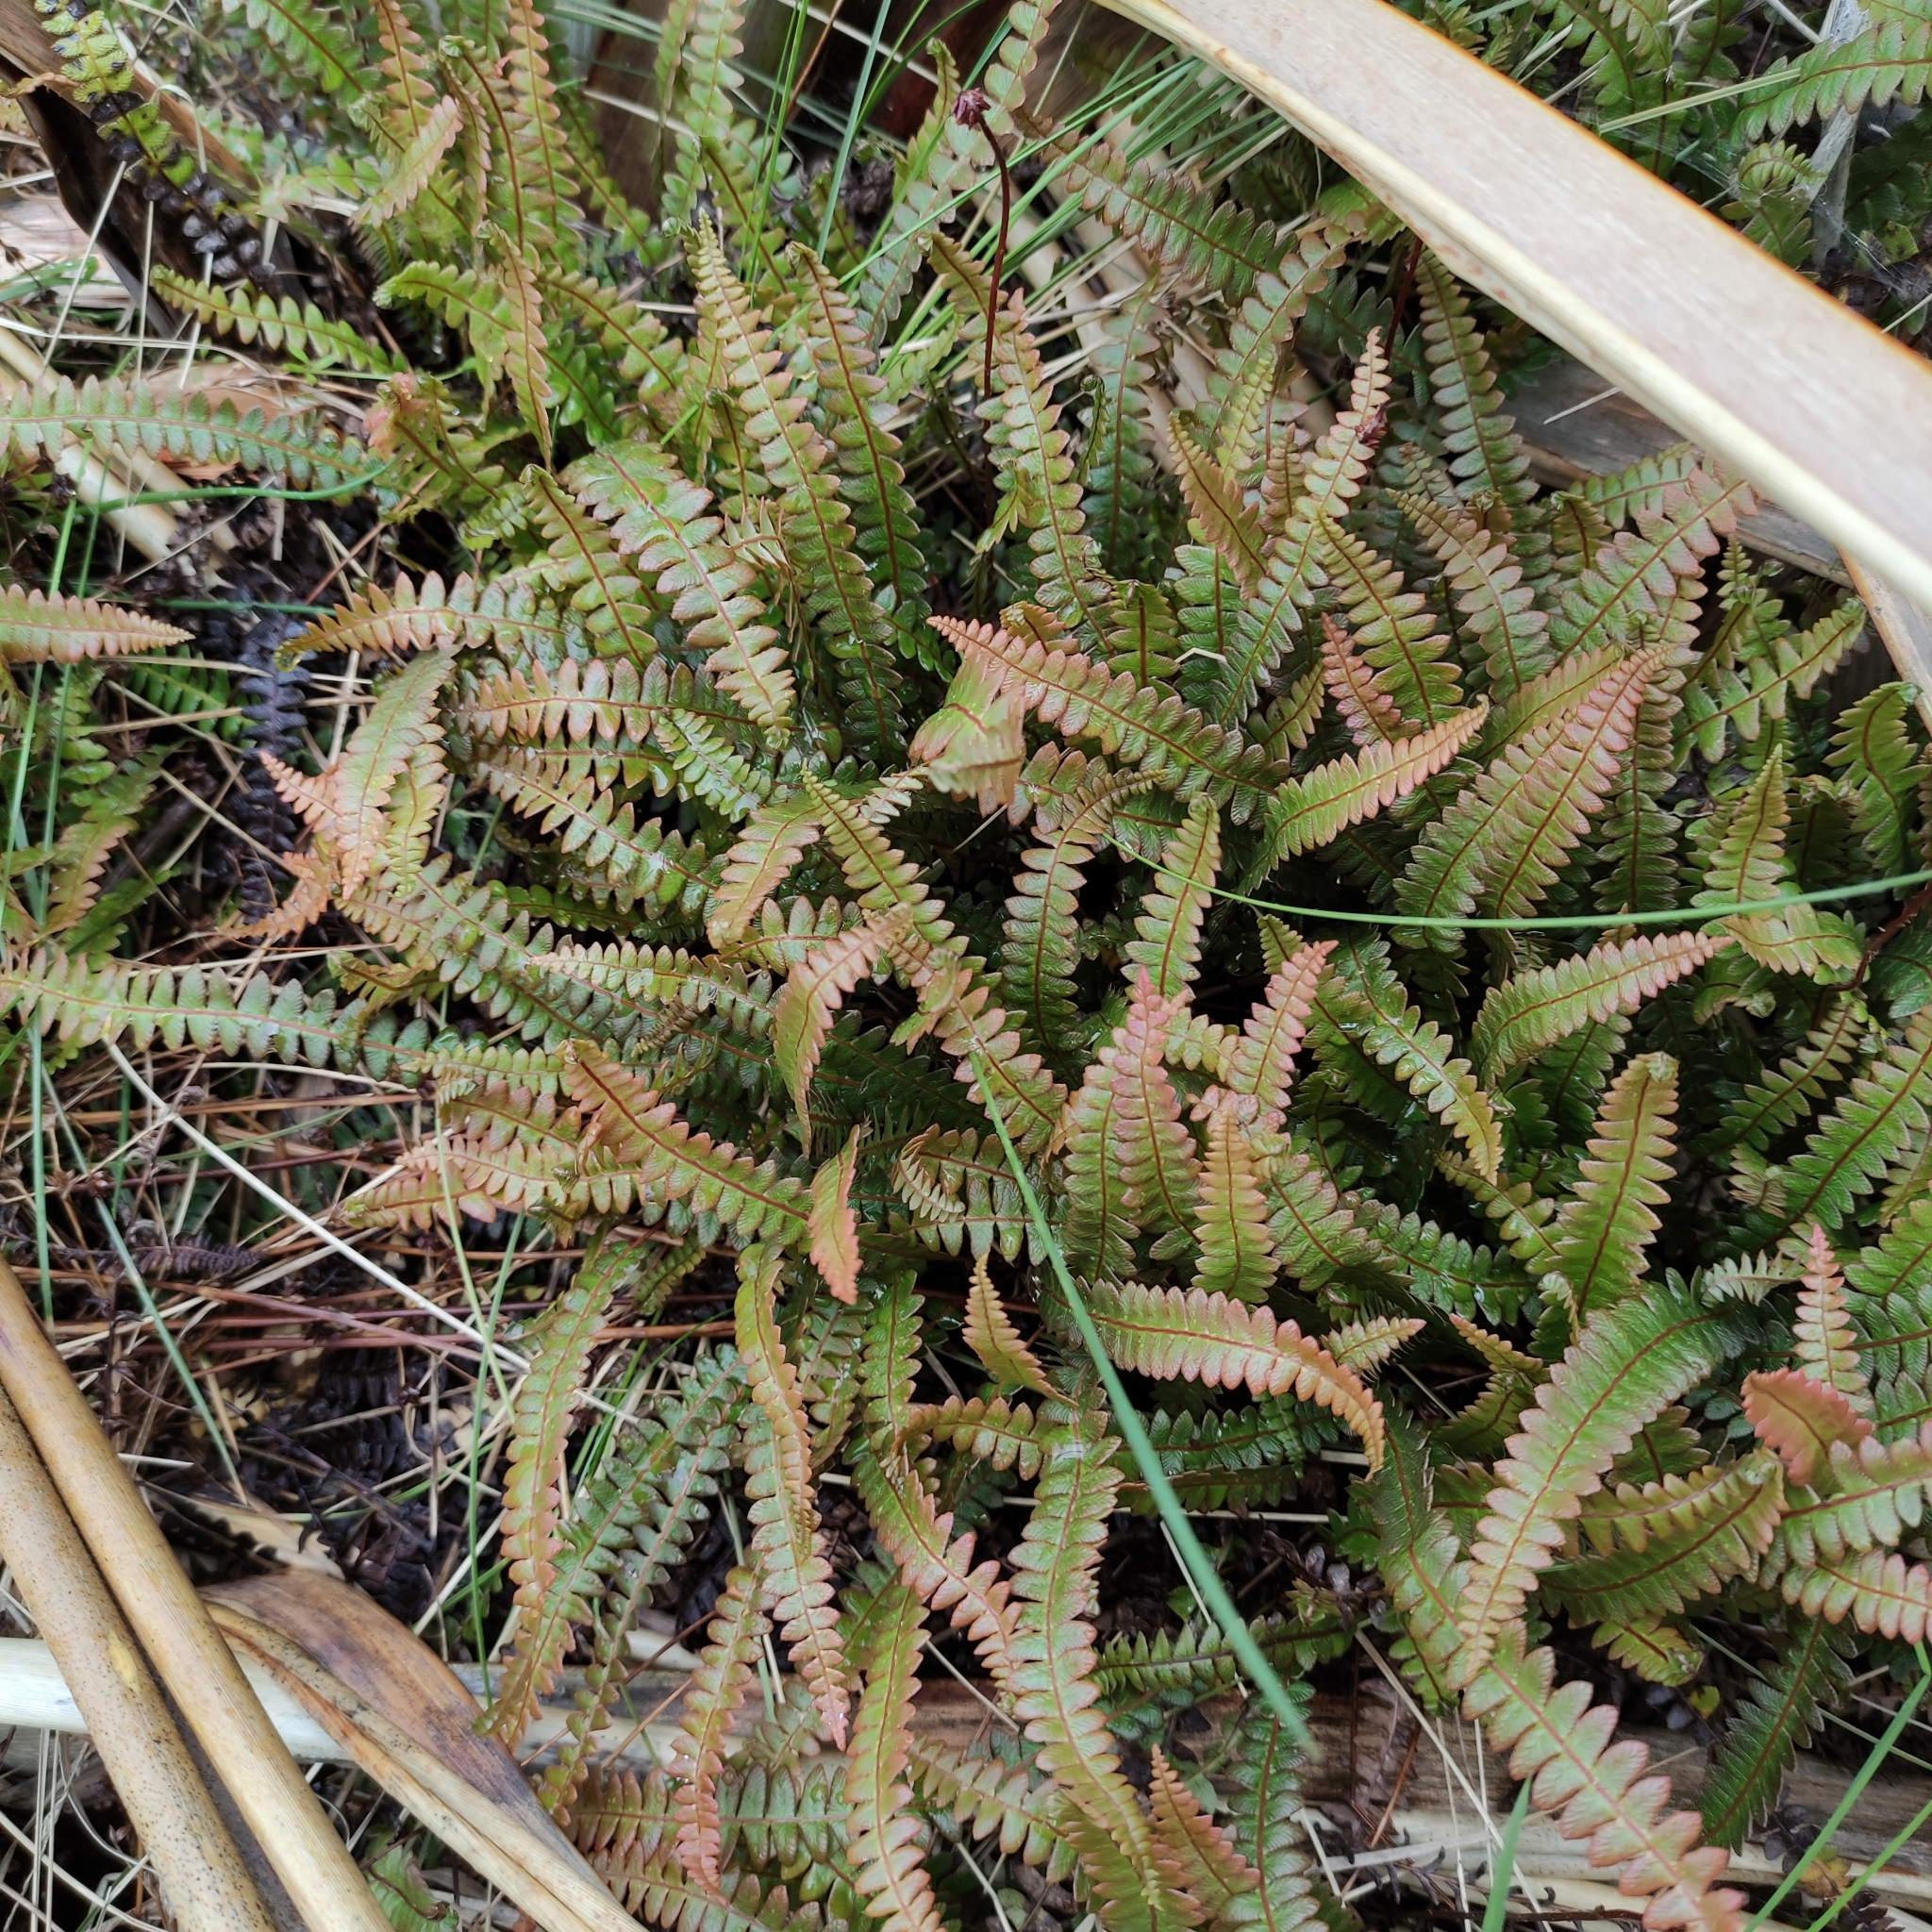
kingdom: Plantae
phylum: Tracheophyta
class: Polypodiopsida
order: Polypodiales
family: Blechnaceae
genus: Austroblechnum
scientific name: Austroblechnum penna-marina
